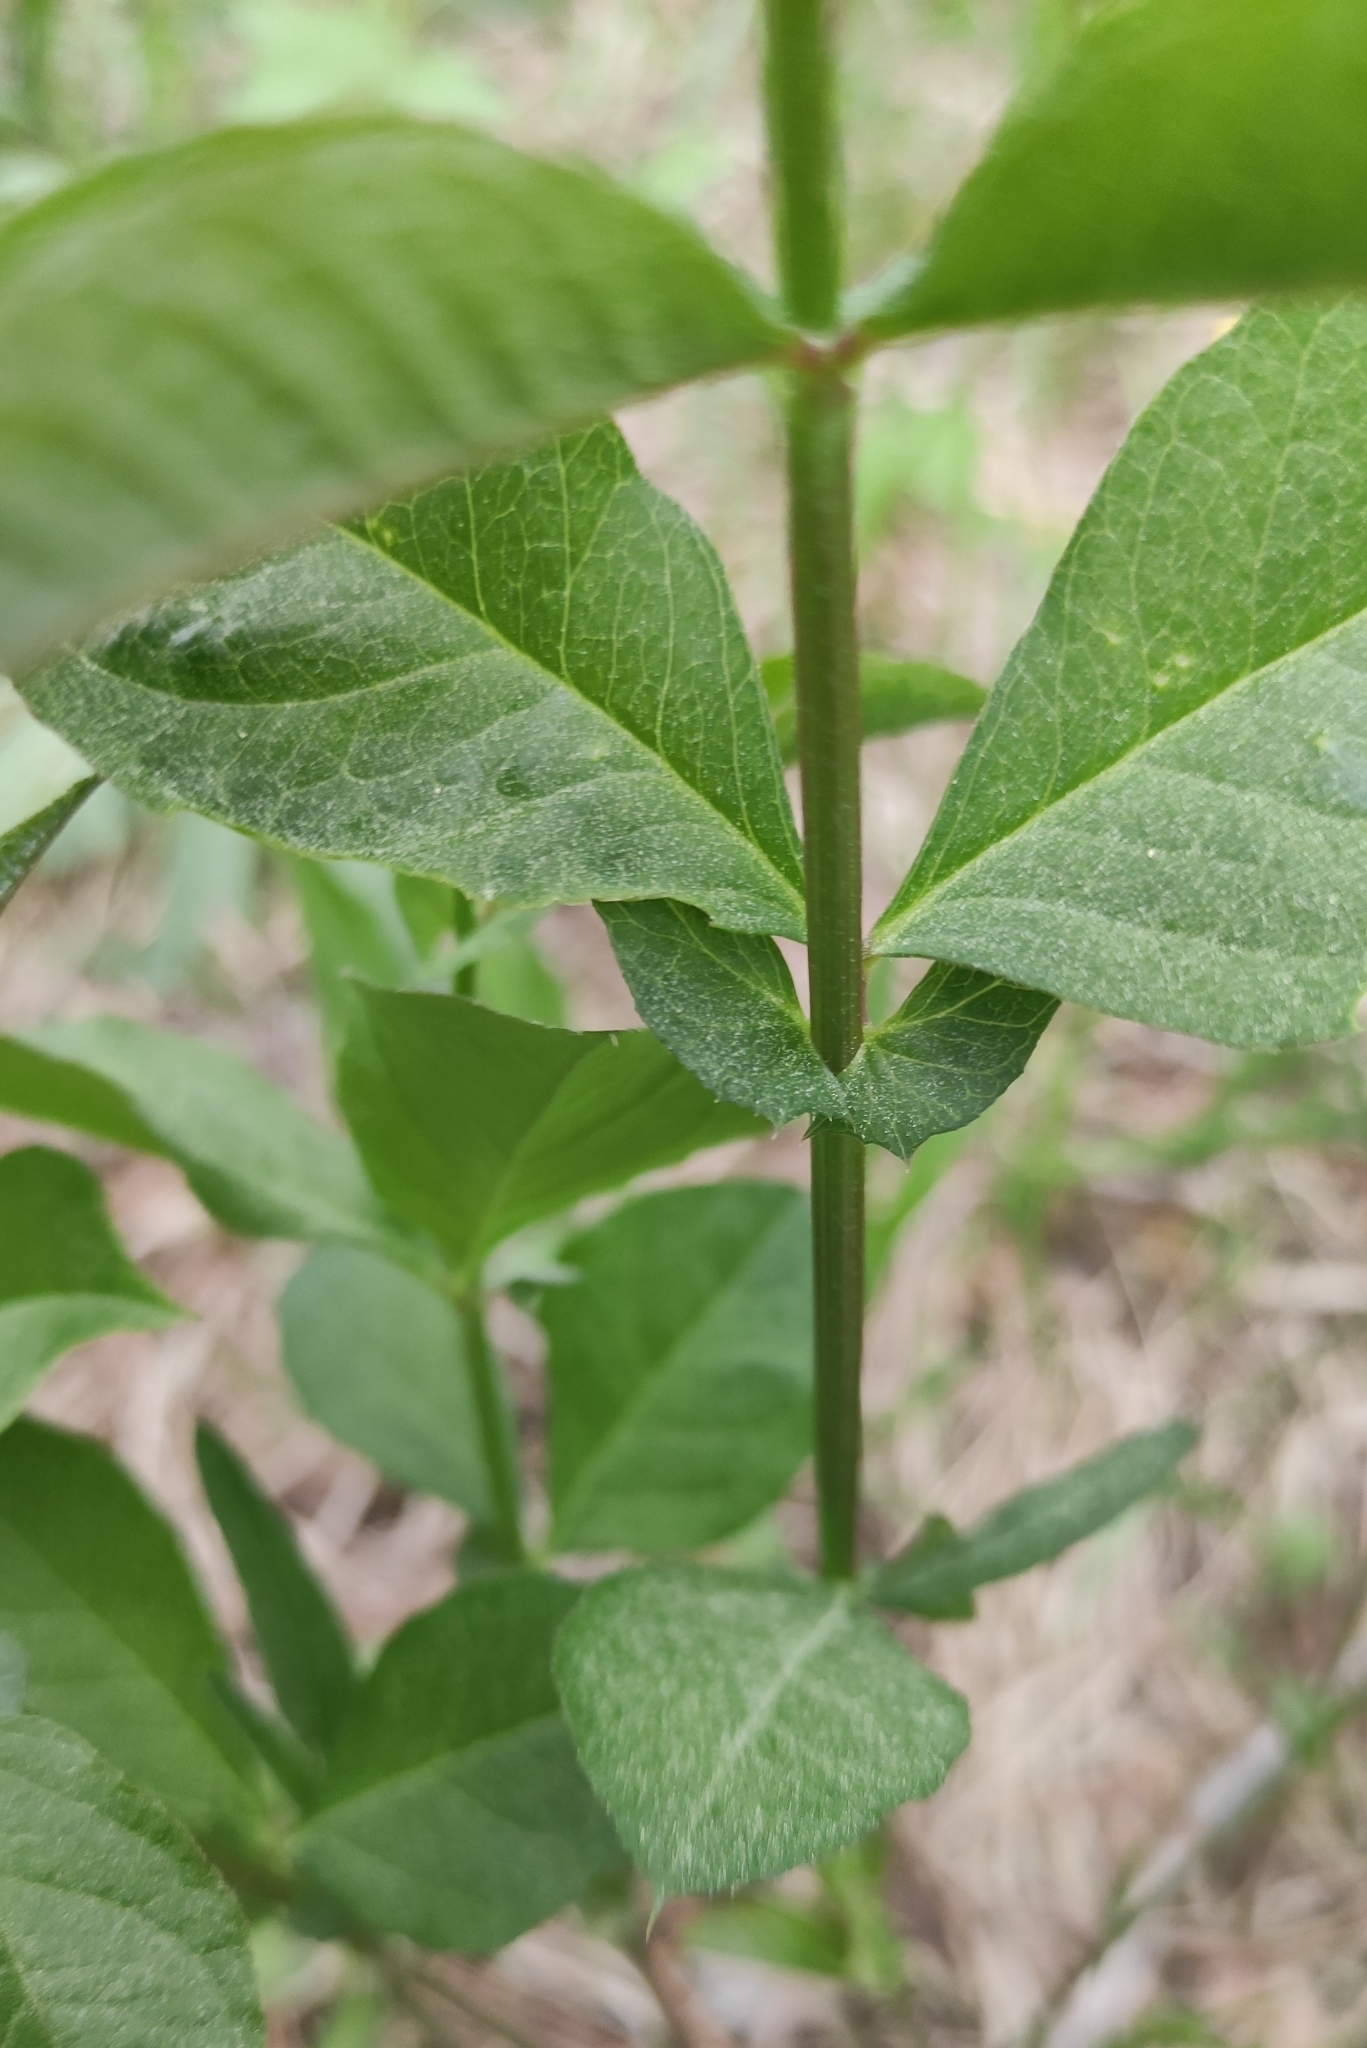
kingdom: Plantae
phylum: Tracheophyta
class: Magnoliopsida
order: Fabales
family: Fabaceae
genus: Vicia
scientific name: Vicia unijuga
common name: Two-leaf vetch
